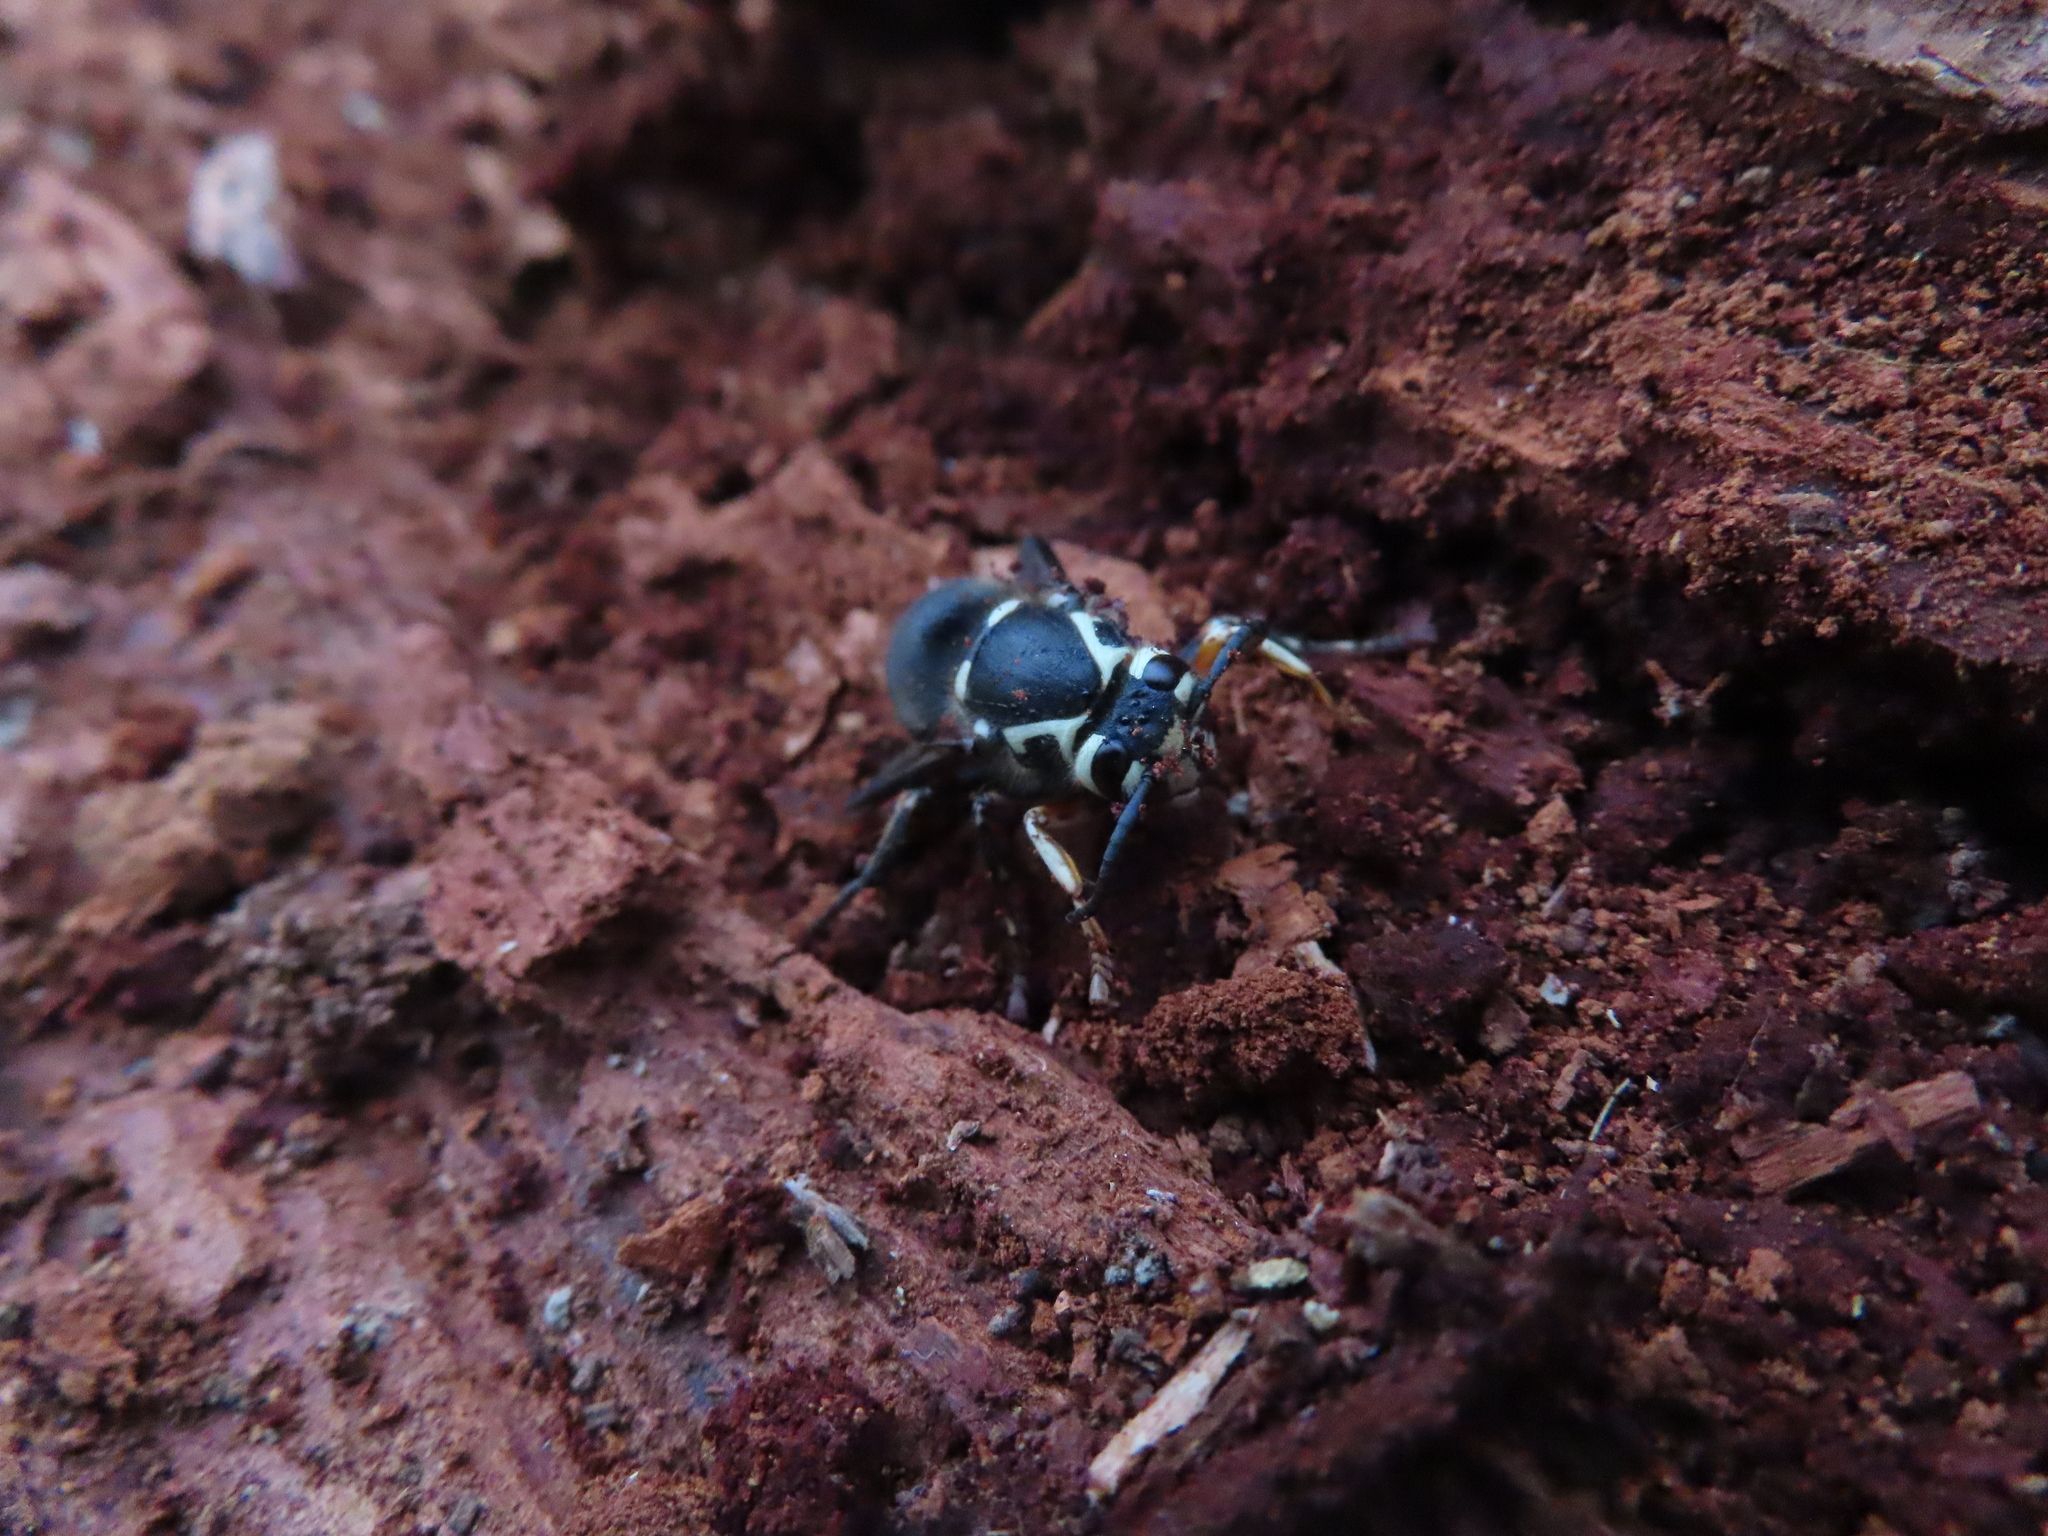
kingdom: Animalia
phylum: Arthropoda
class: Insecta
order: Hymenoptera
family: Vespidae
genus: Dolichovespula
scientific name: Dolichovespula maculata
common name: Bald-faced hornet
